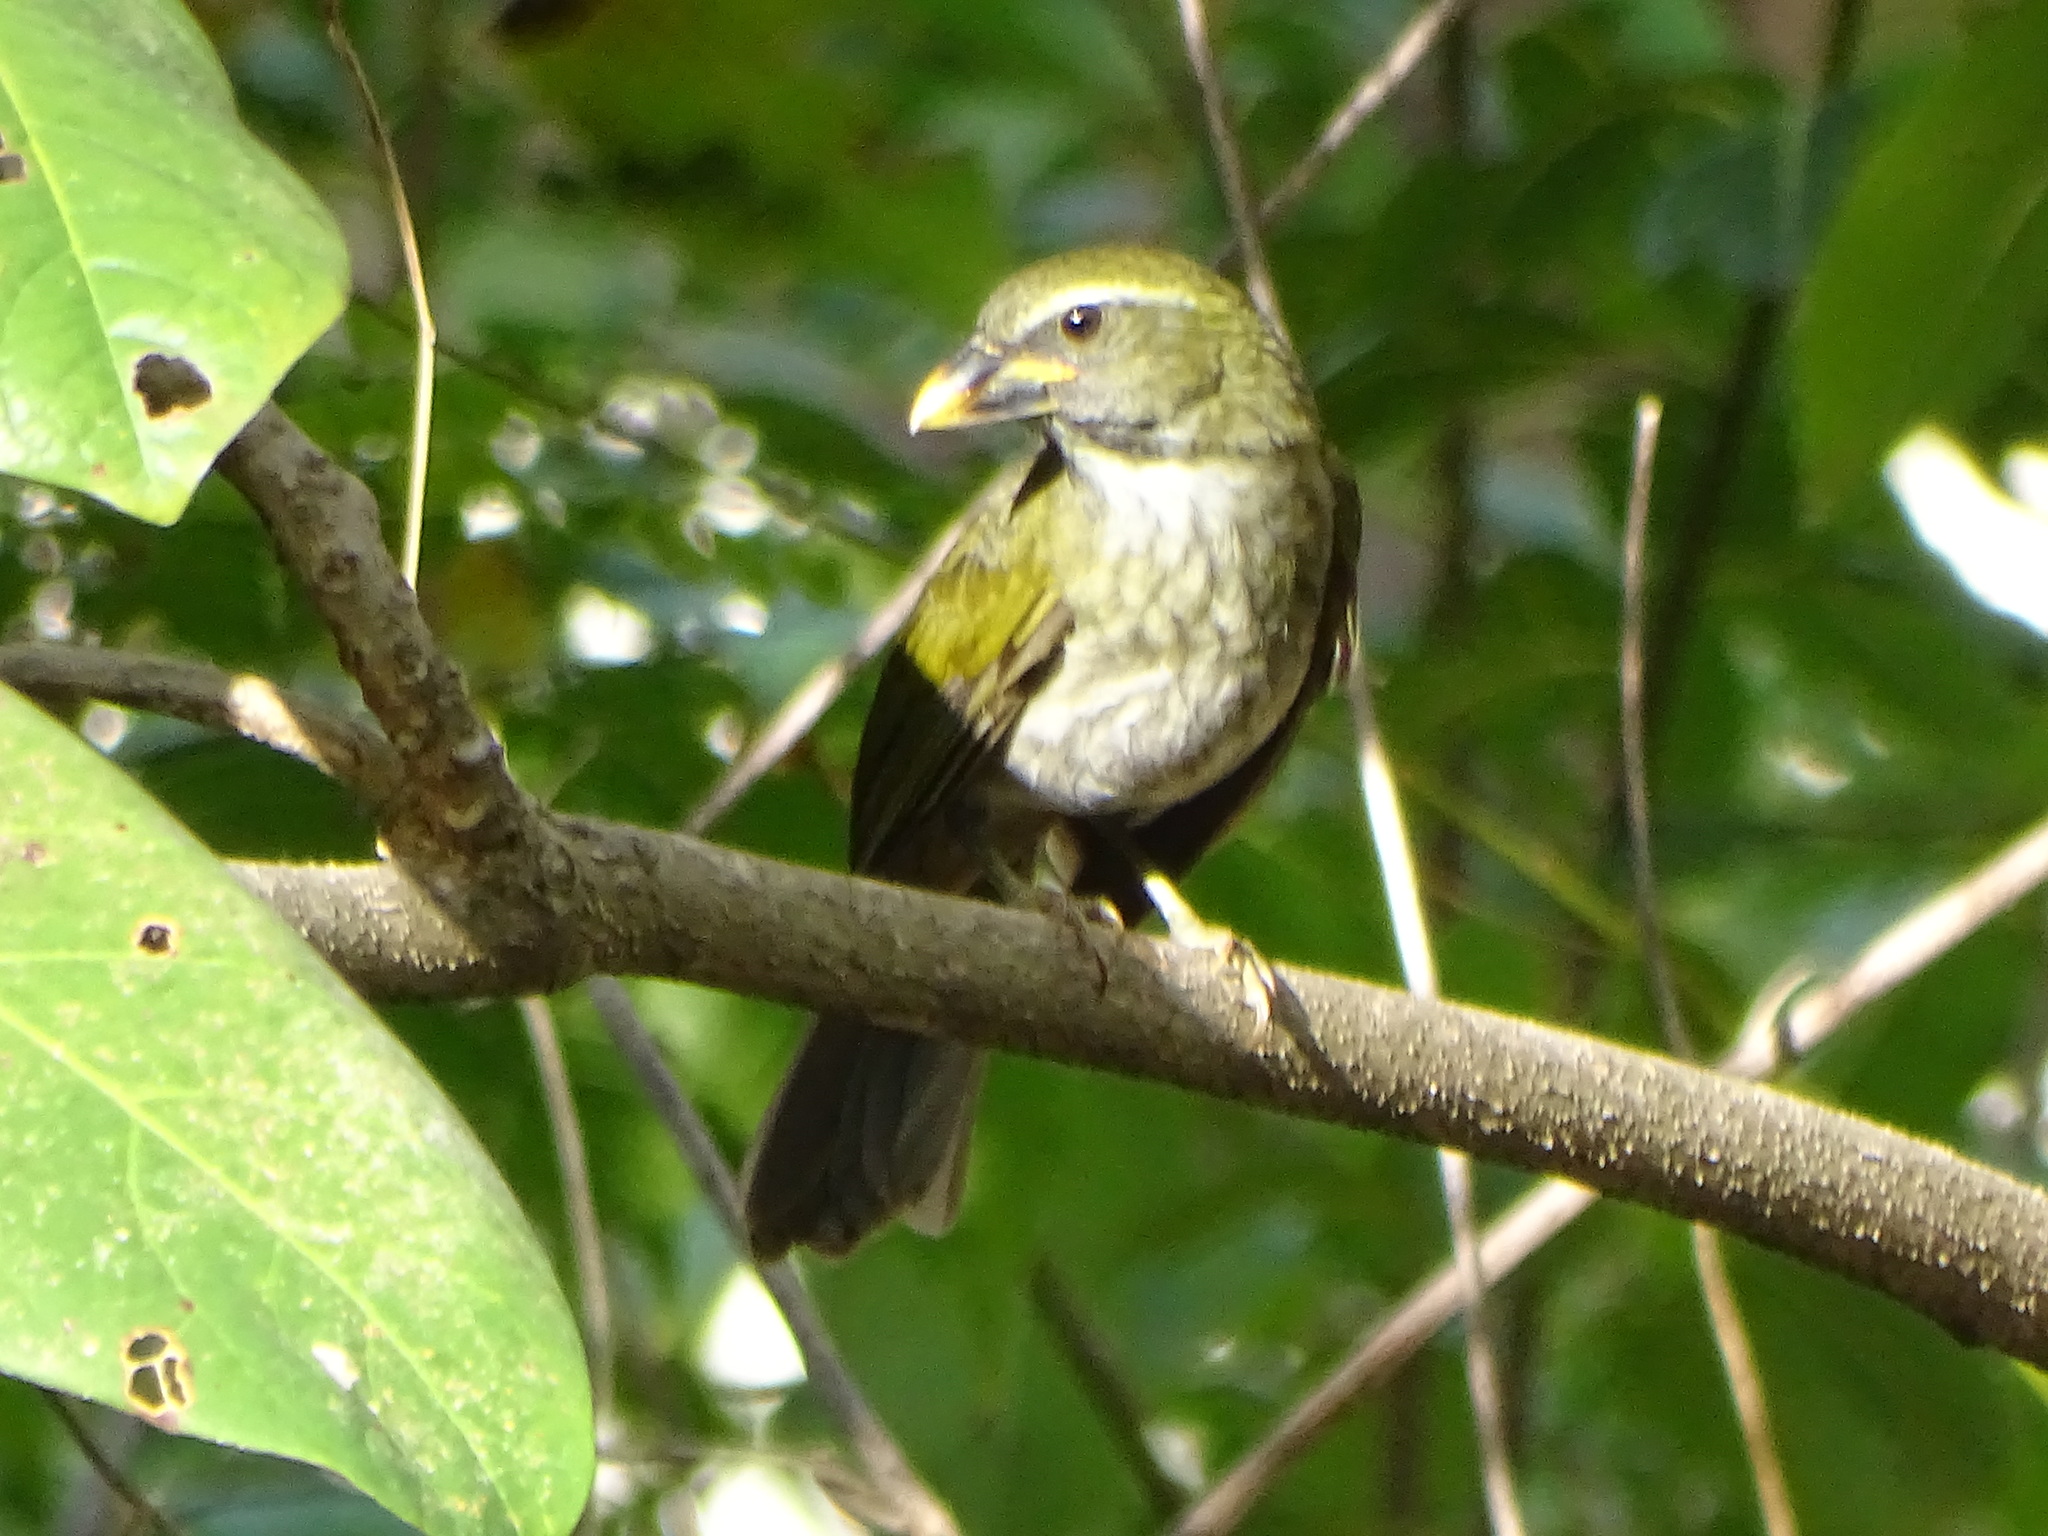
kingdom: Animalia
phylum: Chordata
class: Aves
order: Passeriformes
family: Thraupidae
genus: Saltator
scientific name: Saltator albicollis
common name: Lesser antillean saltator
